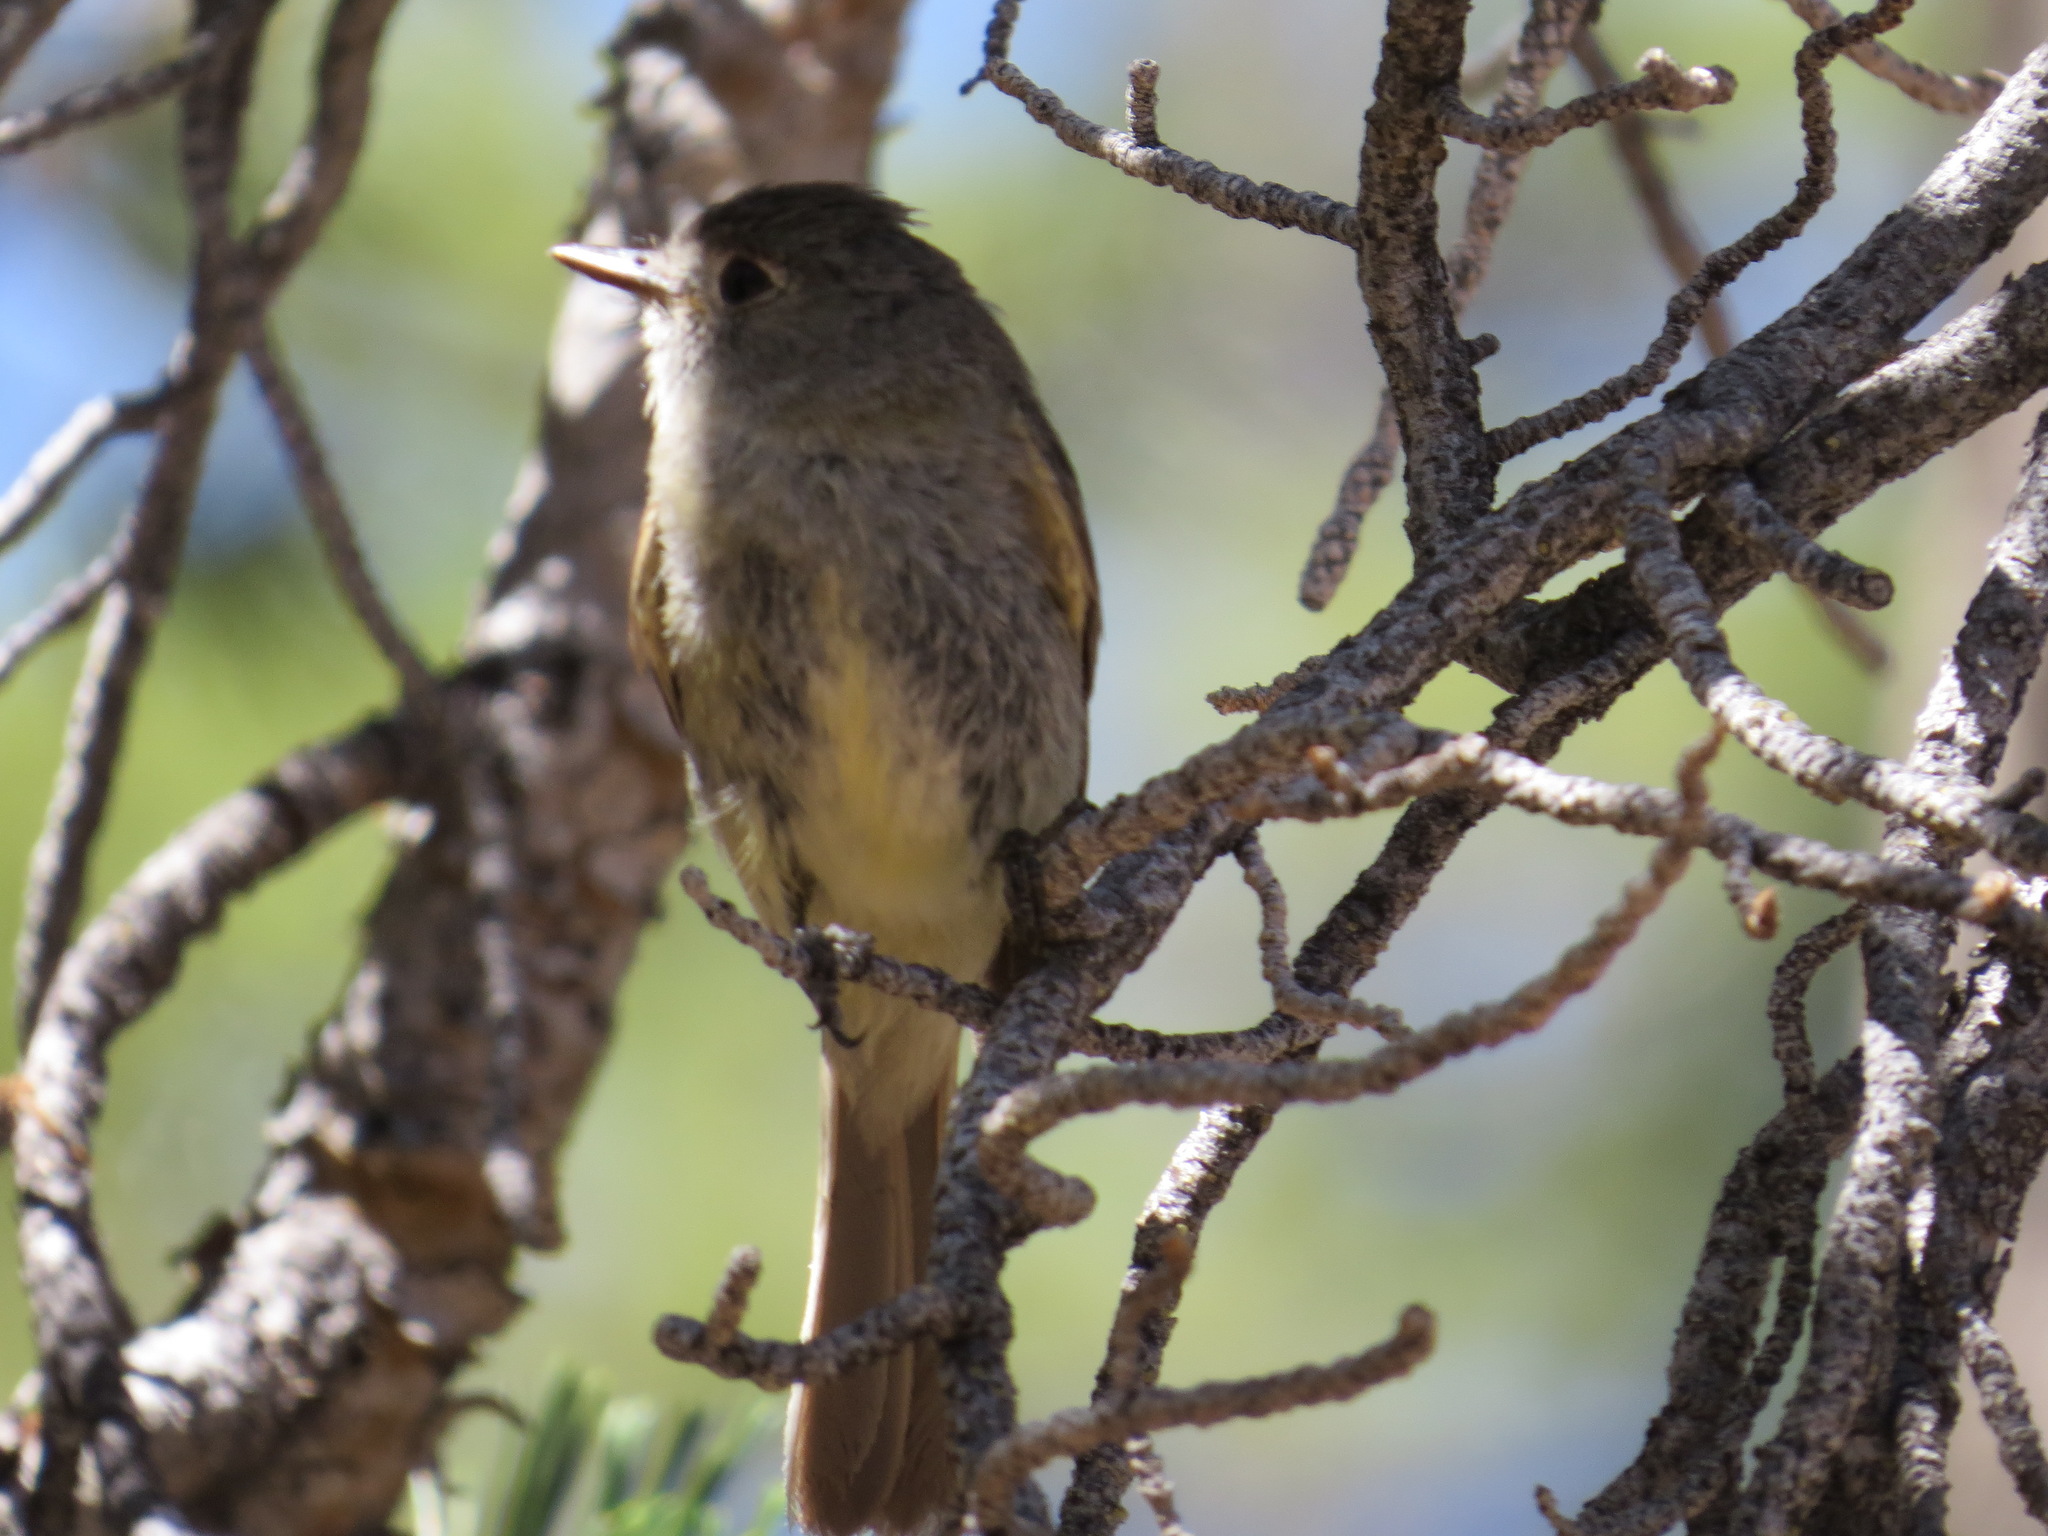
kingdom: Animalia
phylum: Chordata
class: Aves
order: Passeriformes
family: Tyrannidae
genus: Empidonax
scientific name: Empidonax oberholseri
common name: Dusky flycatcher
